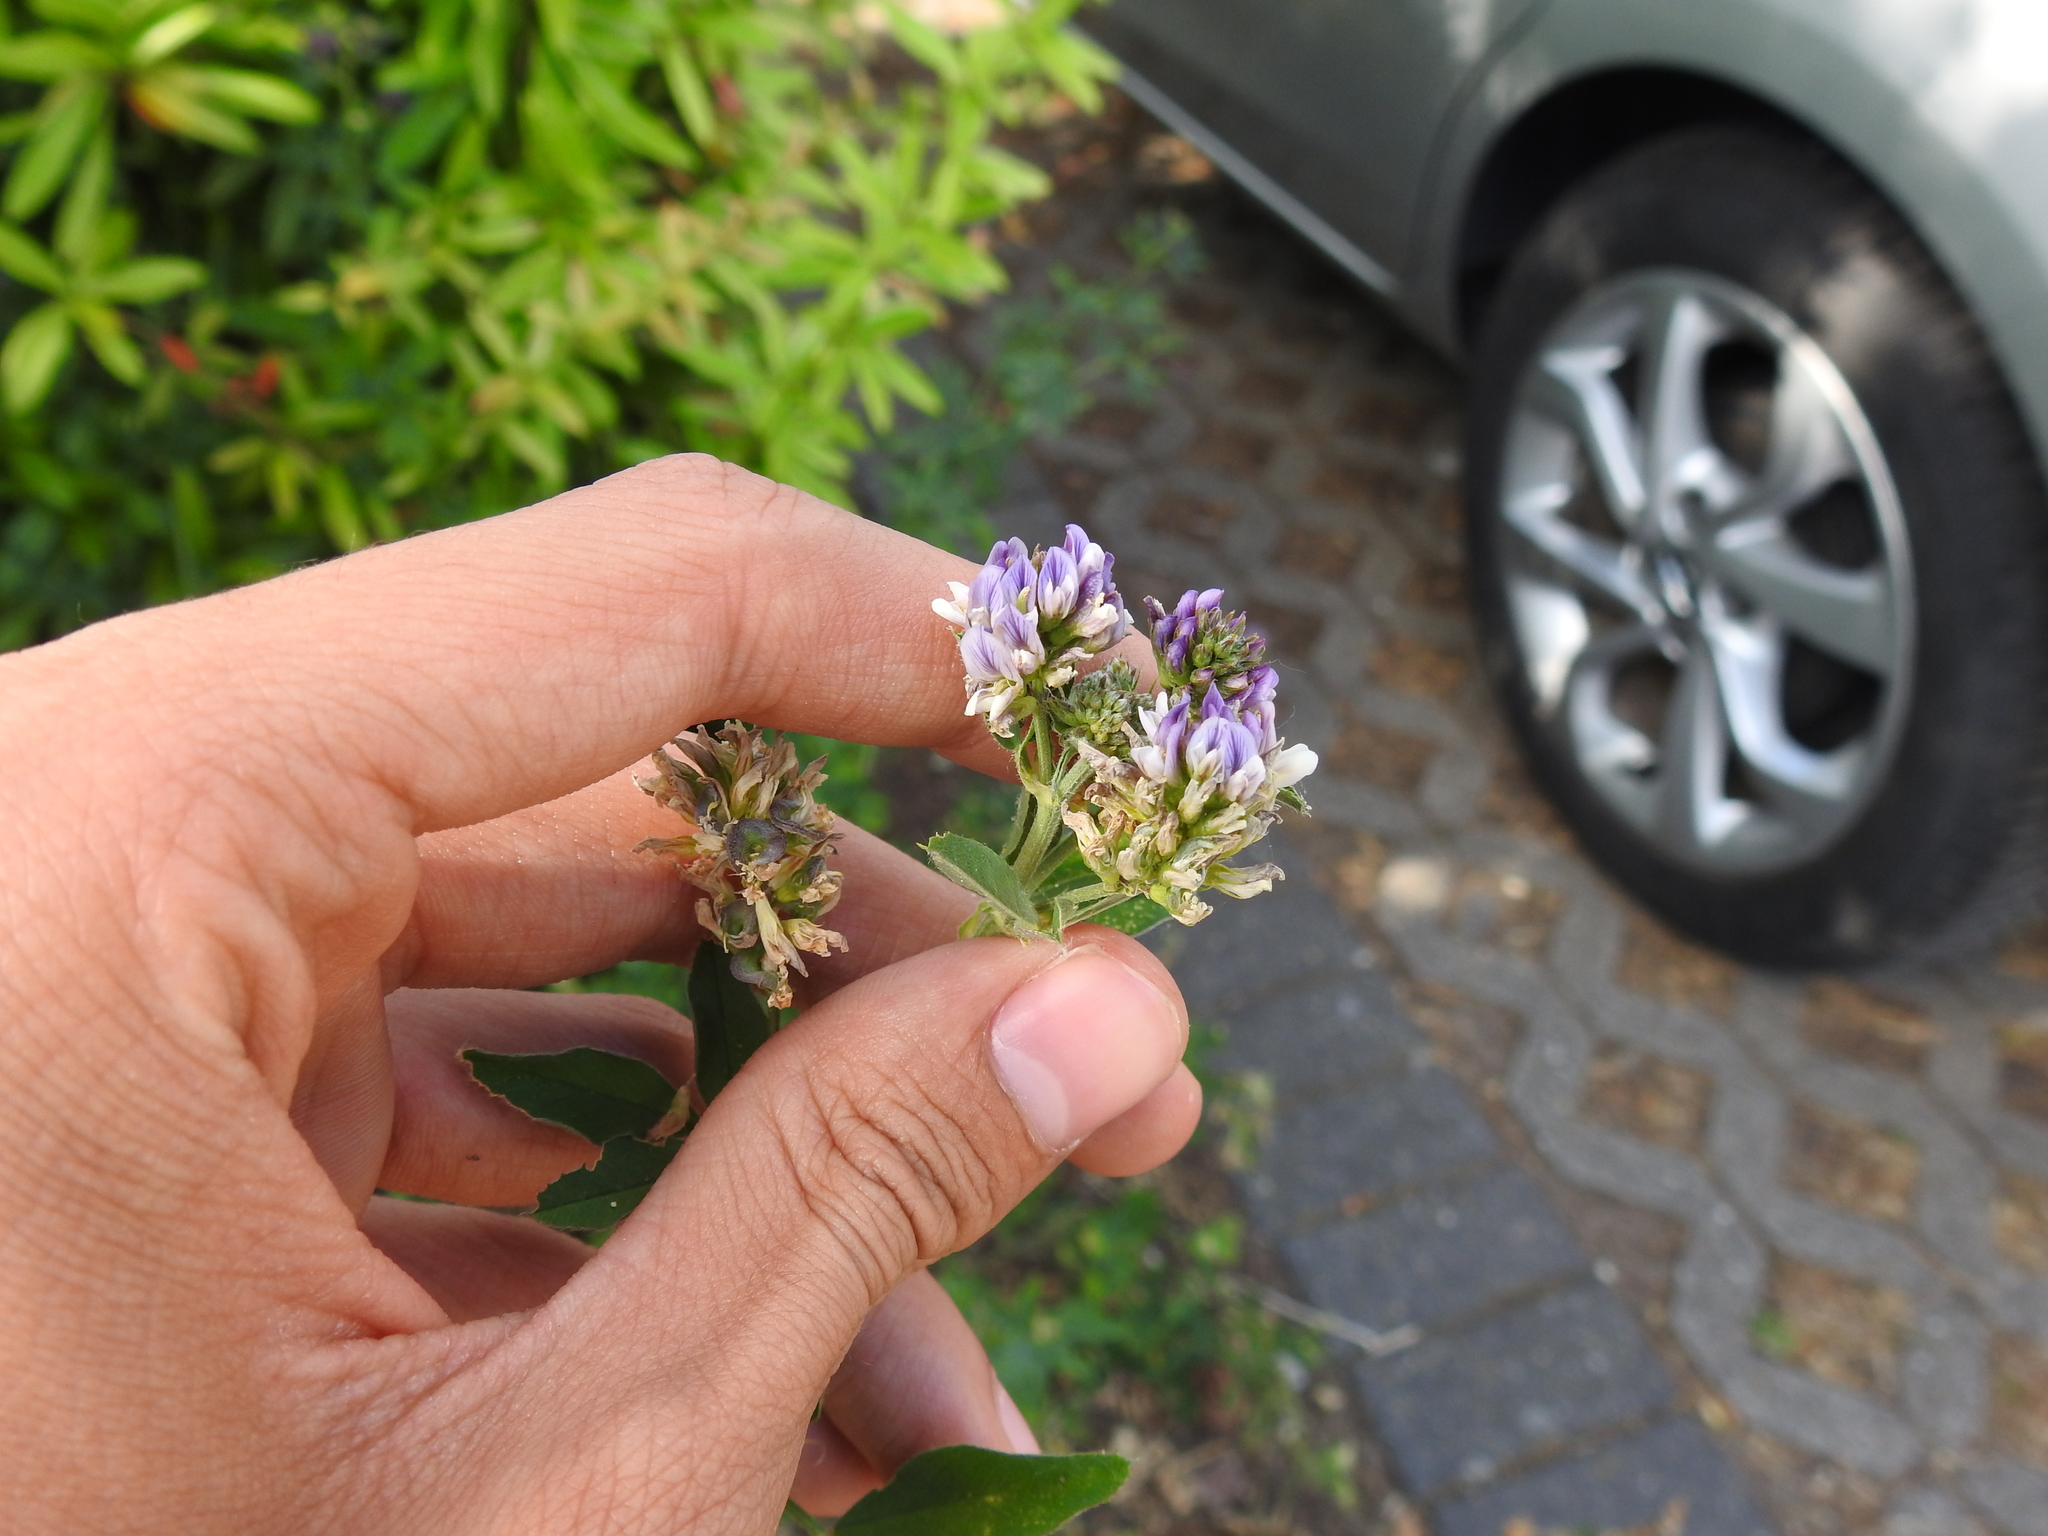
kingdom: Plantae
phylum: Tracheophyta
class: Magnoliopsida
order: Fabales
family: Fabaceae
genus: Medicago
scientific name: Medicago varia
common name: Sand lucerne
